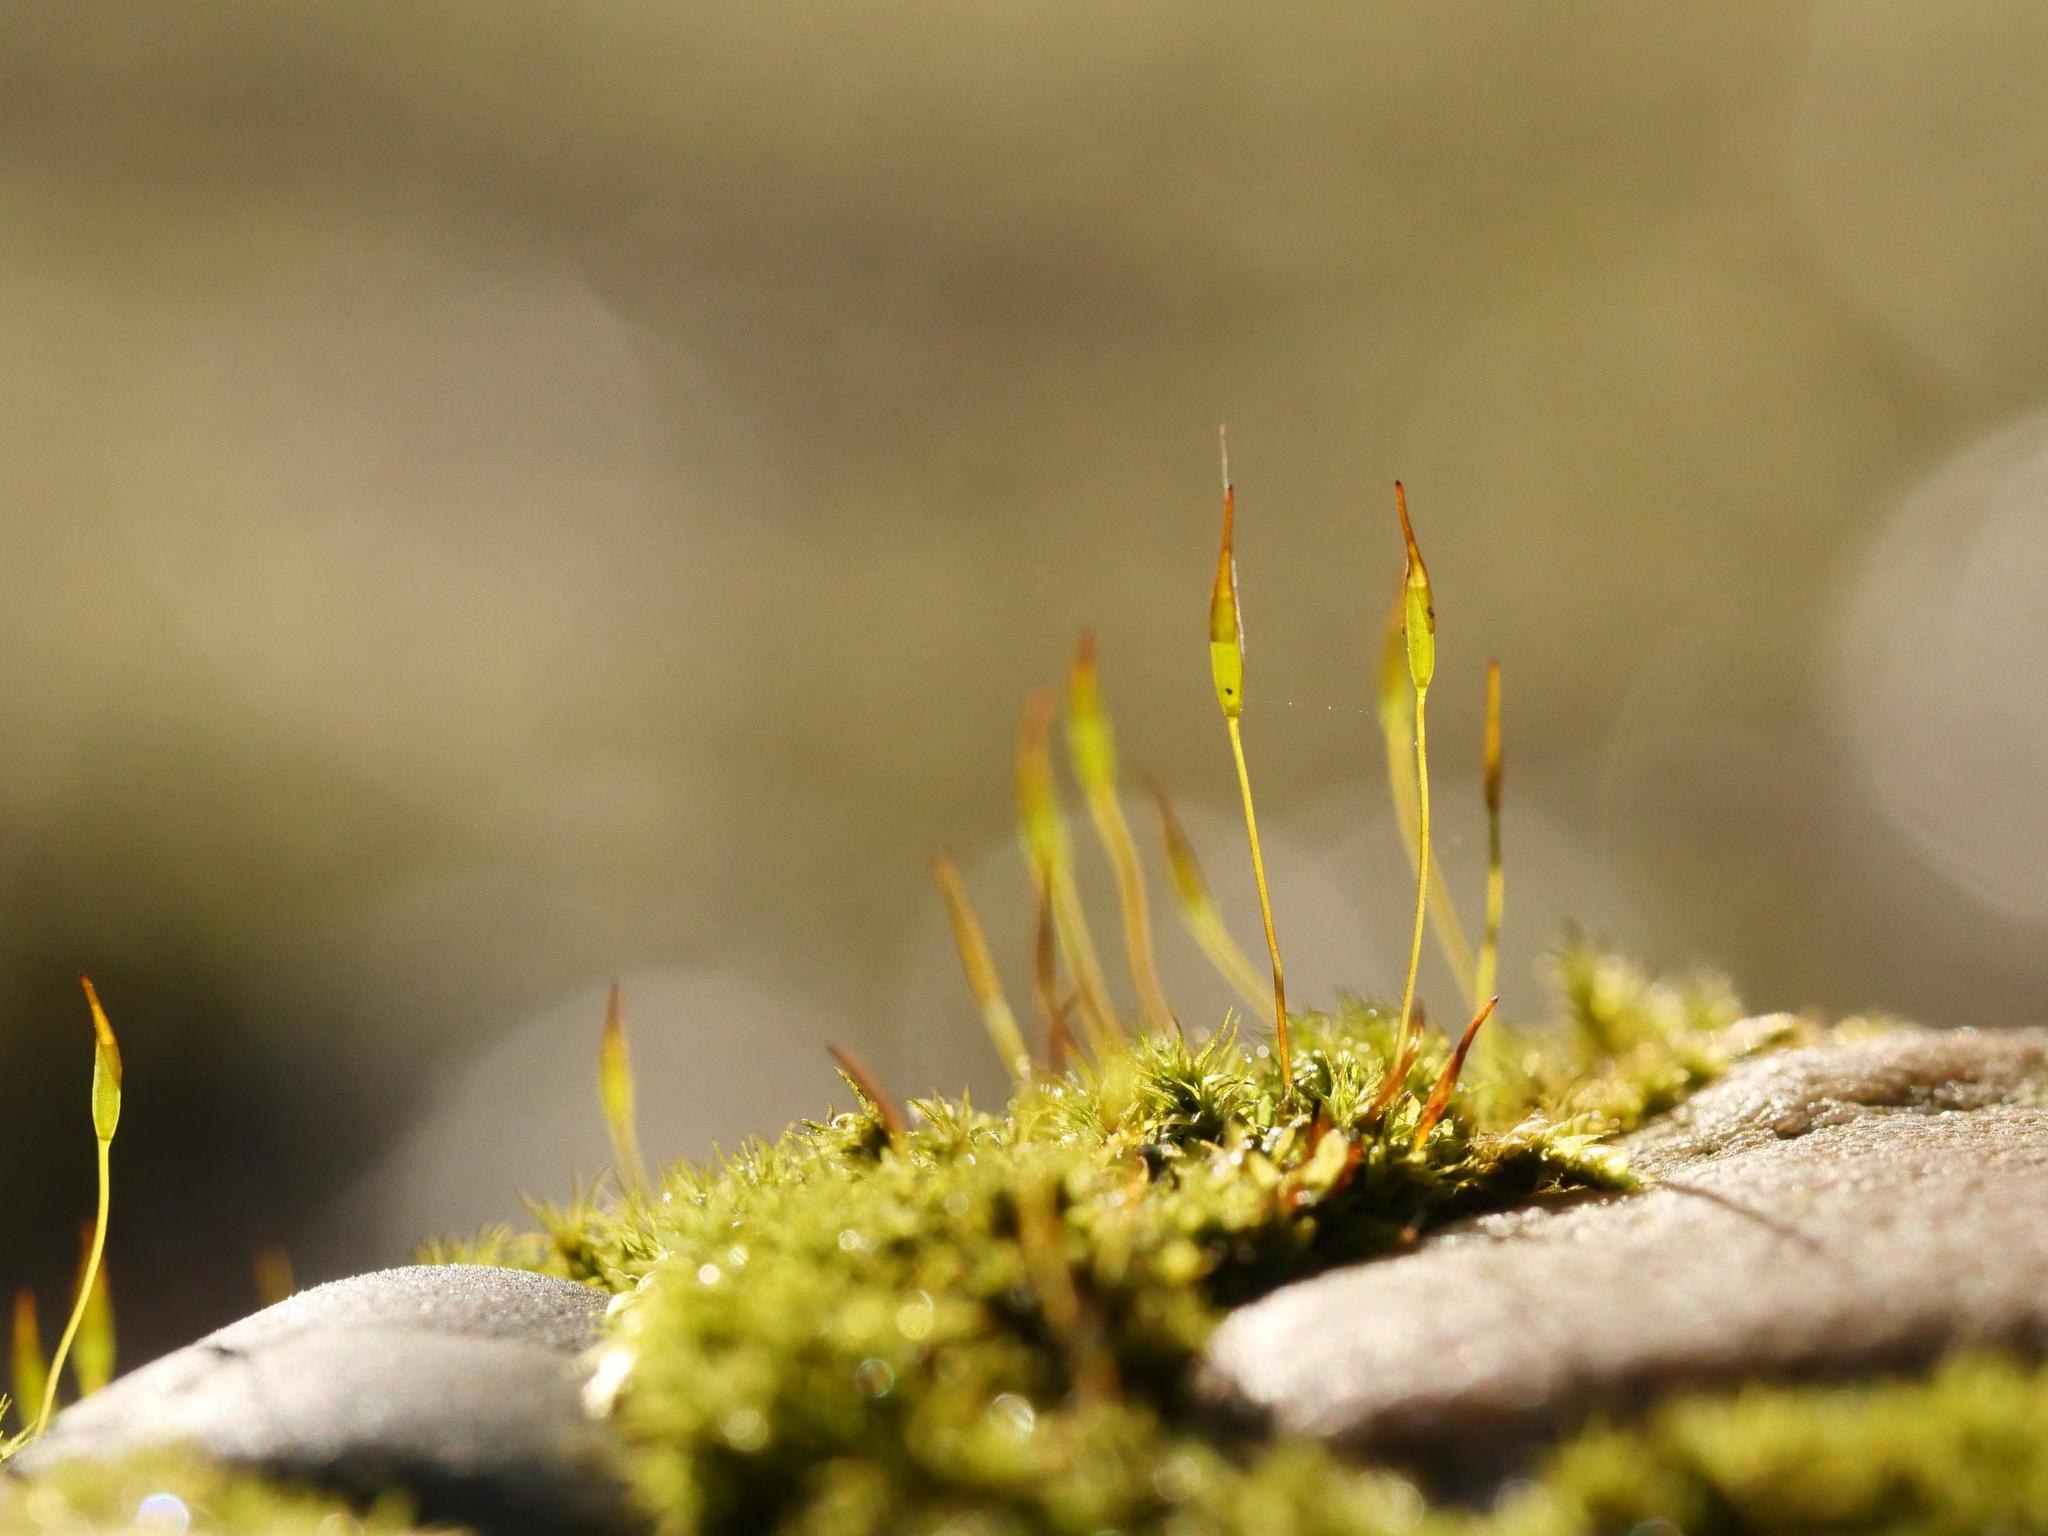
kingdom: Plantae
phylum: Bryophyta
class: Bryopsida
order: Pottiales
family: Pottiaceae
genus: Tortula
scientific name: Tortula muralis
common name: Wall screw-moss
